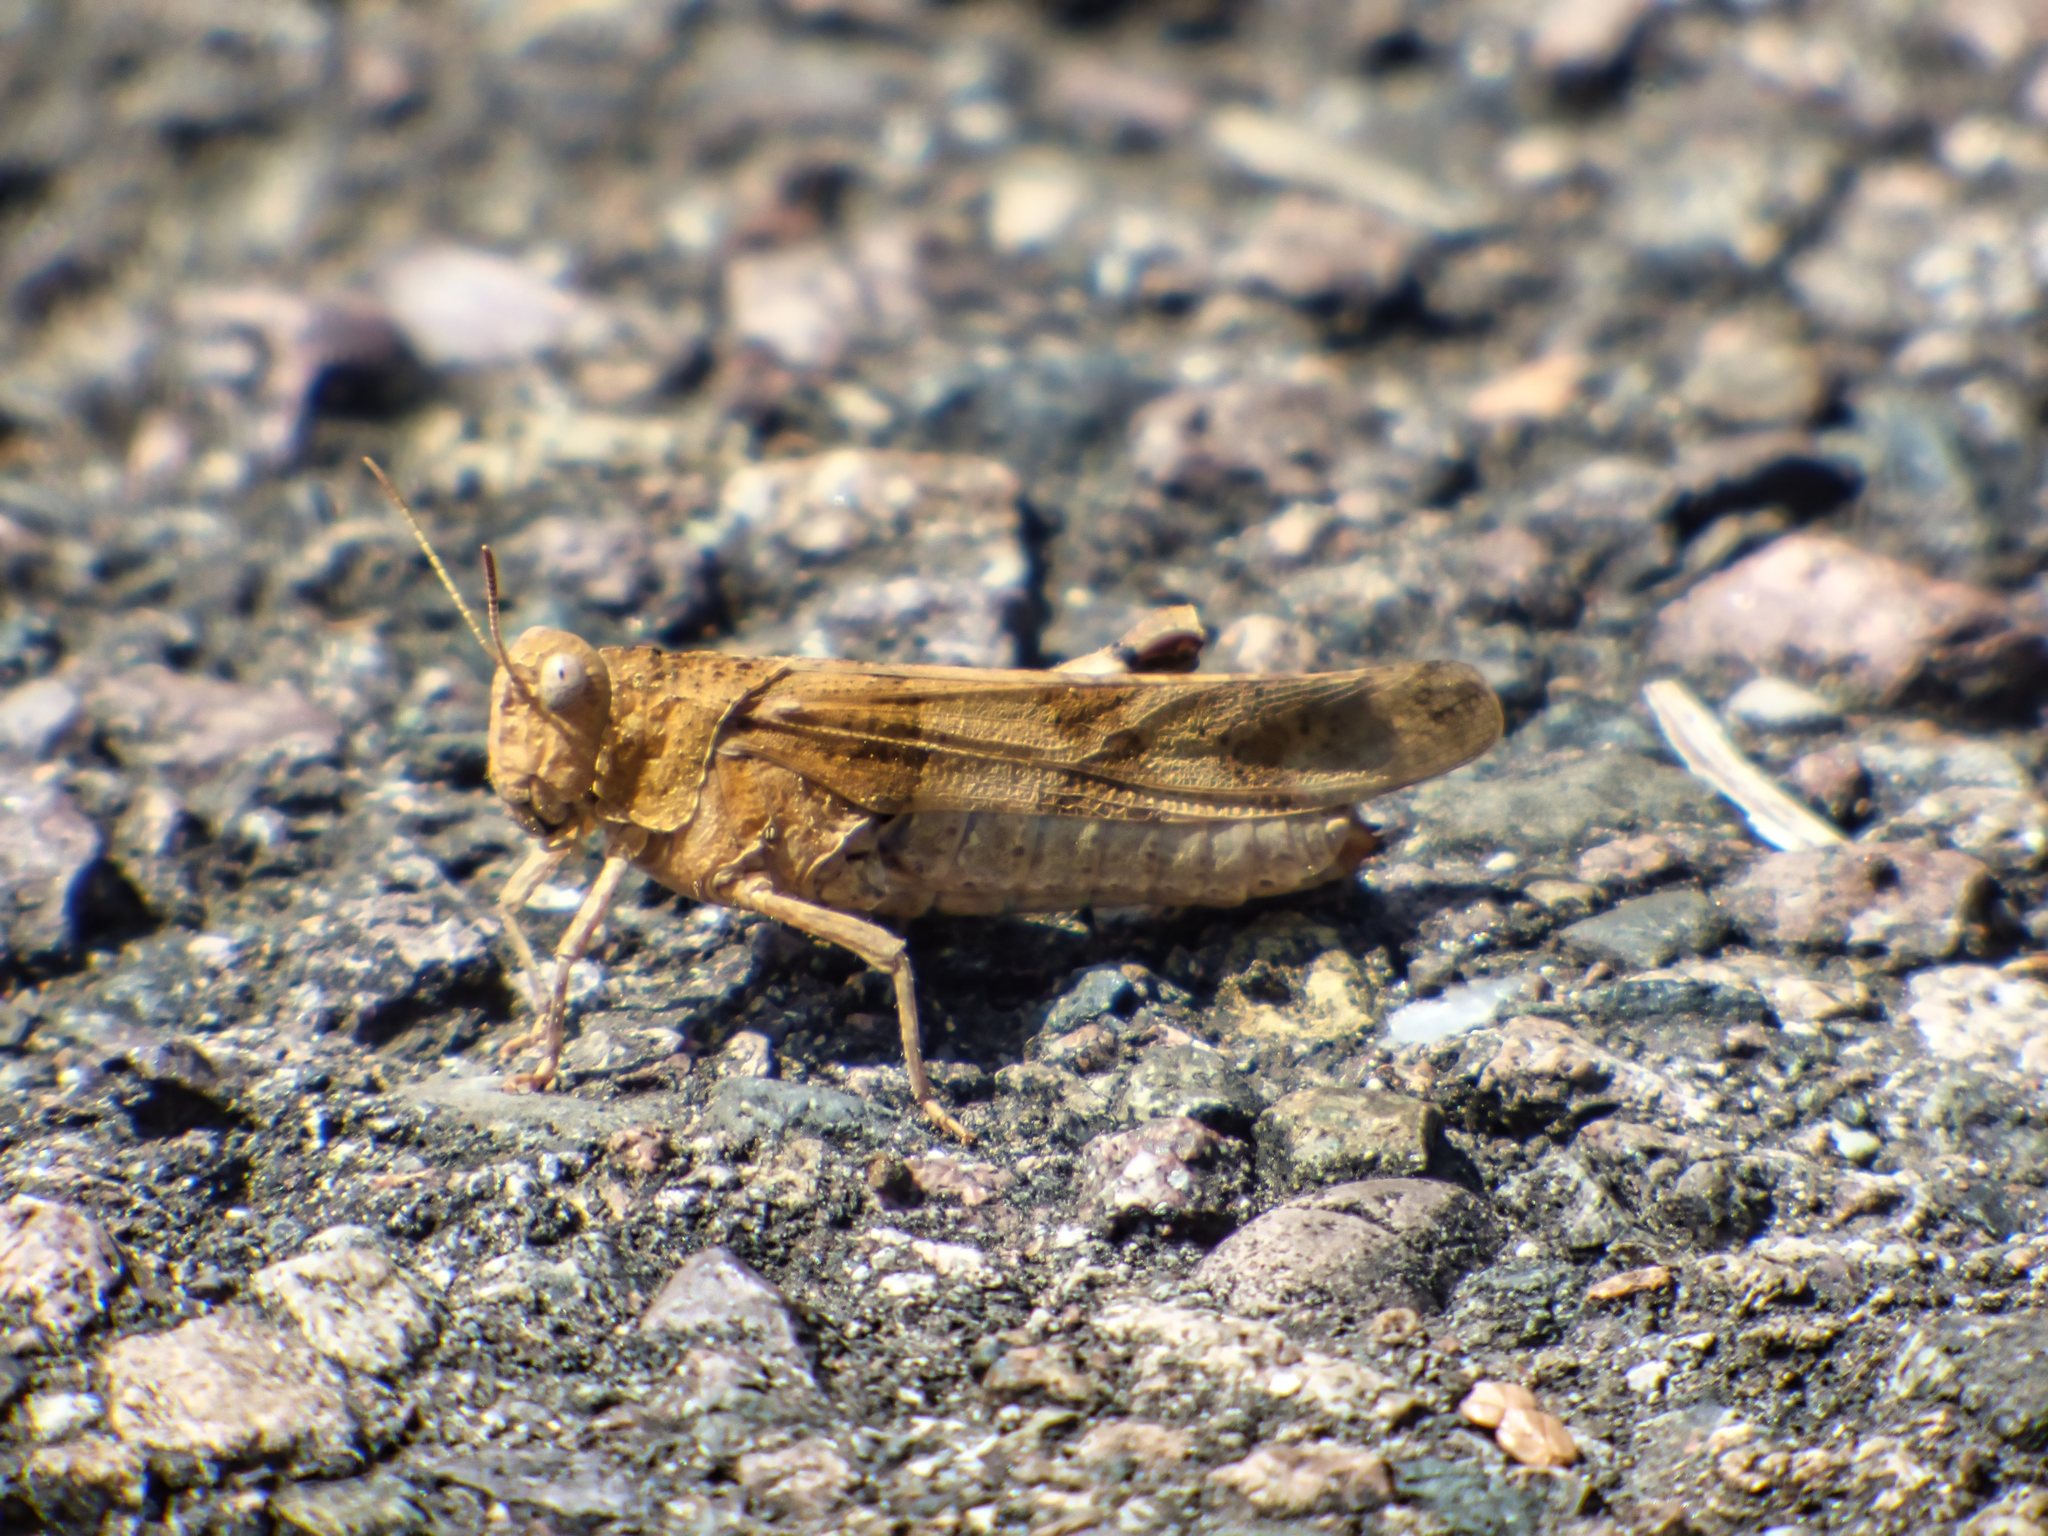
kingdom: Animalia
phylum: Arthropoda
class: Insecta
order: Orthoptera
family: Acrididae
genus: Oedipoda
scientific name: Oedipoda caerulescens
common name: Blue-winged grasshopper
